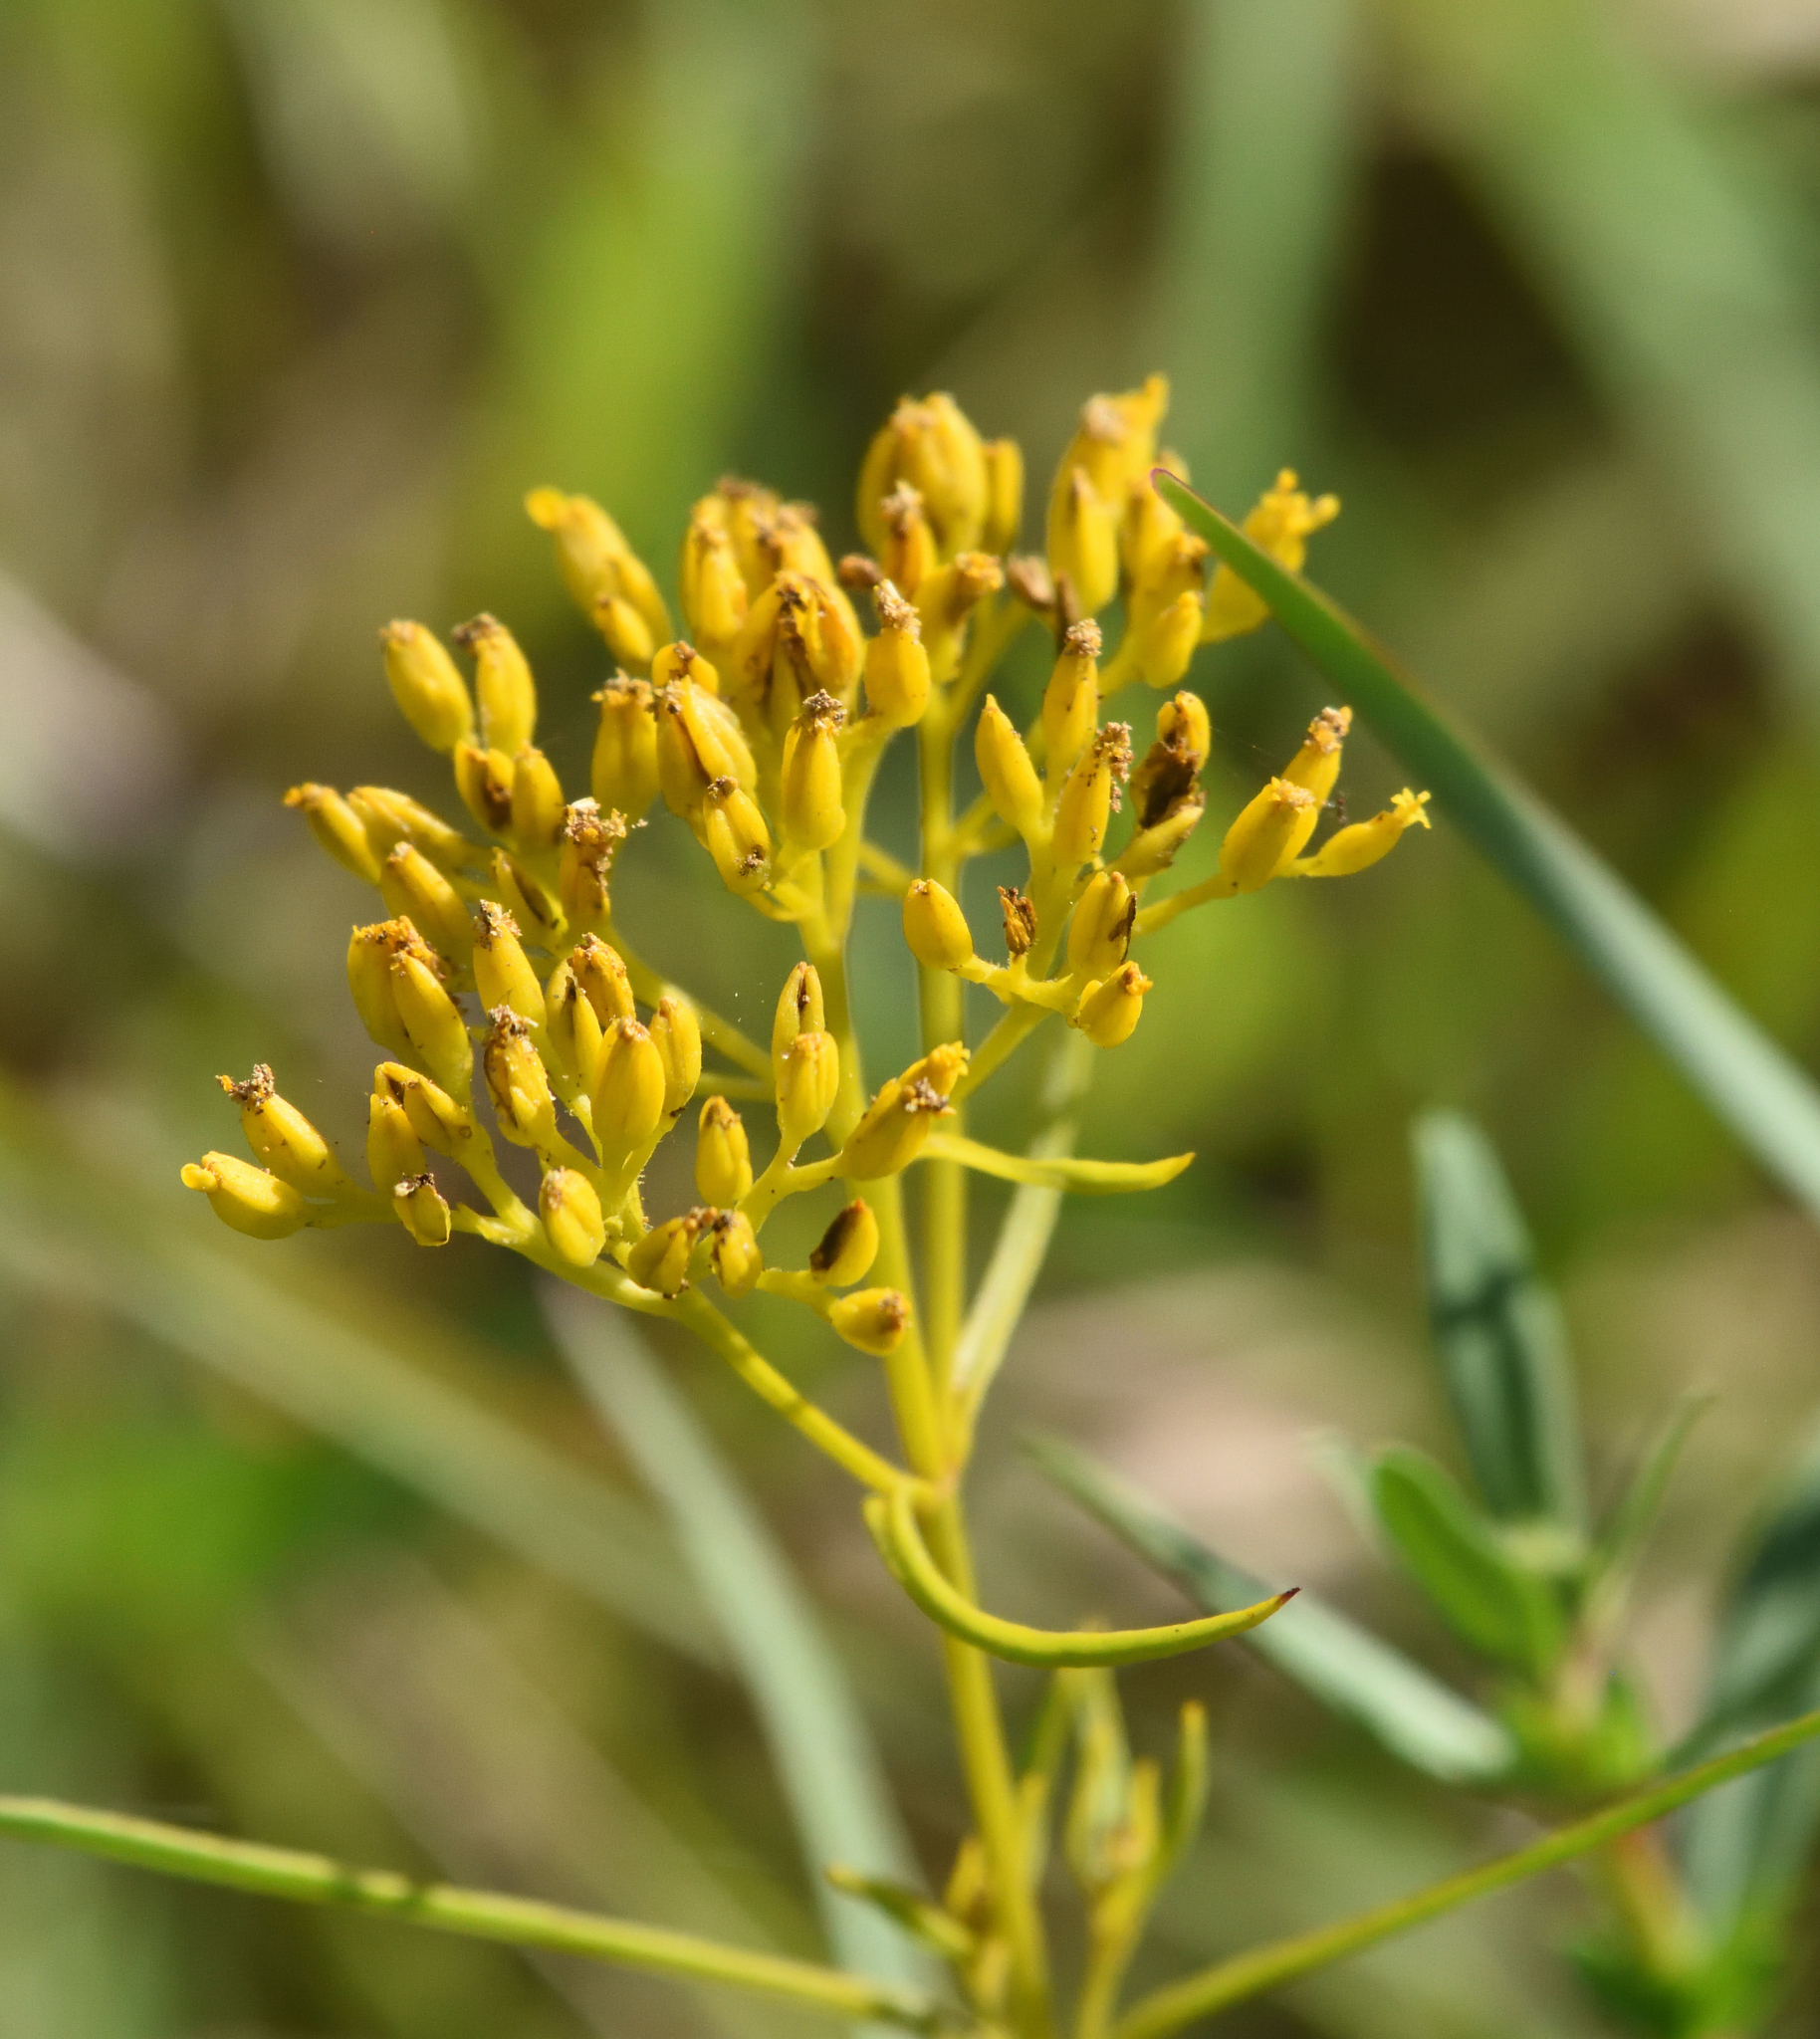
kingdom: Plantae
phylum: Tracheophyta
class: Magnoliopsida
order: Asterales
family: Asteraceae
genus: Flaveria
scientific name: Flaveria linearis
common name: Yellowtop
